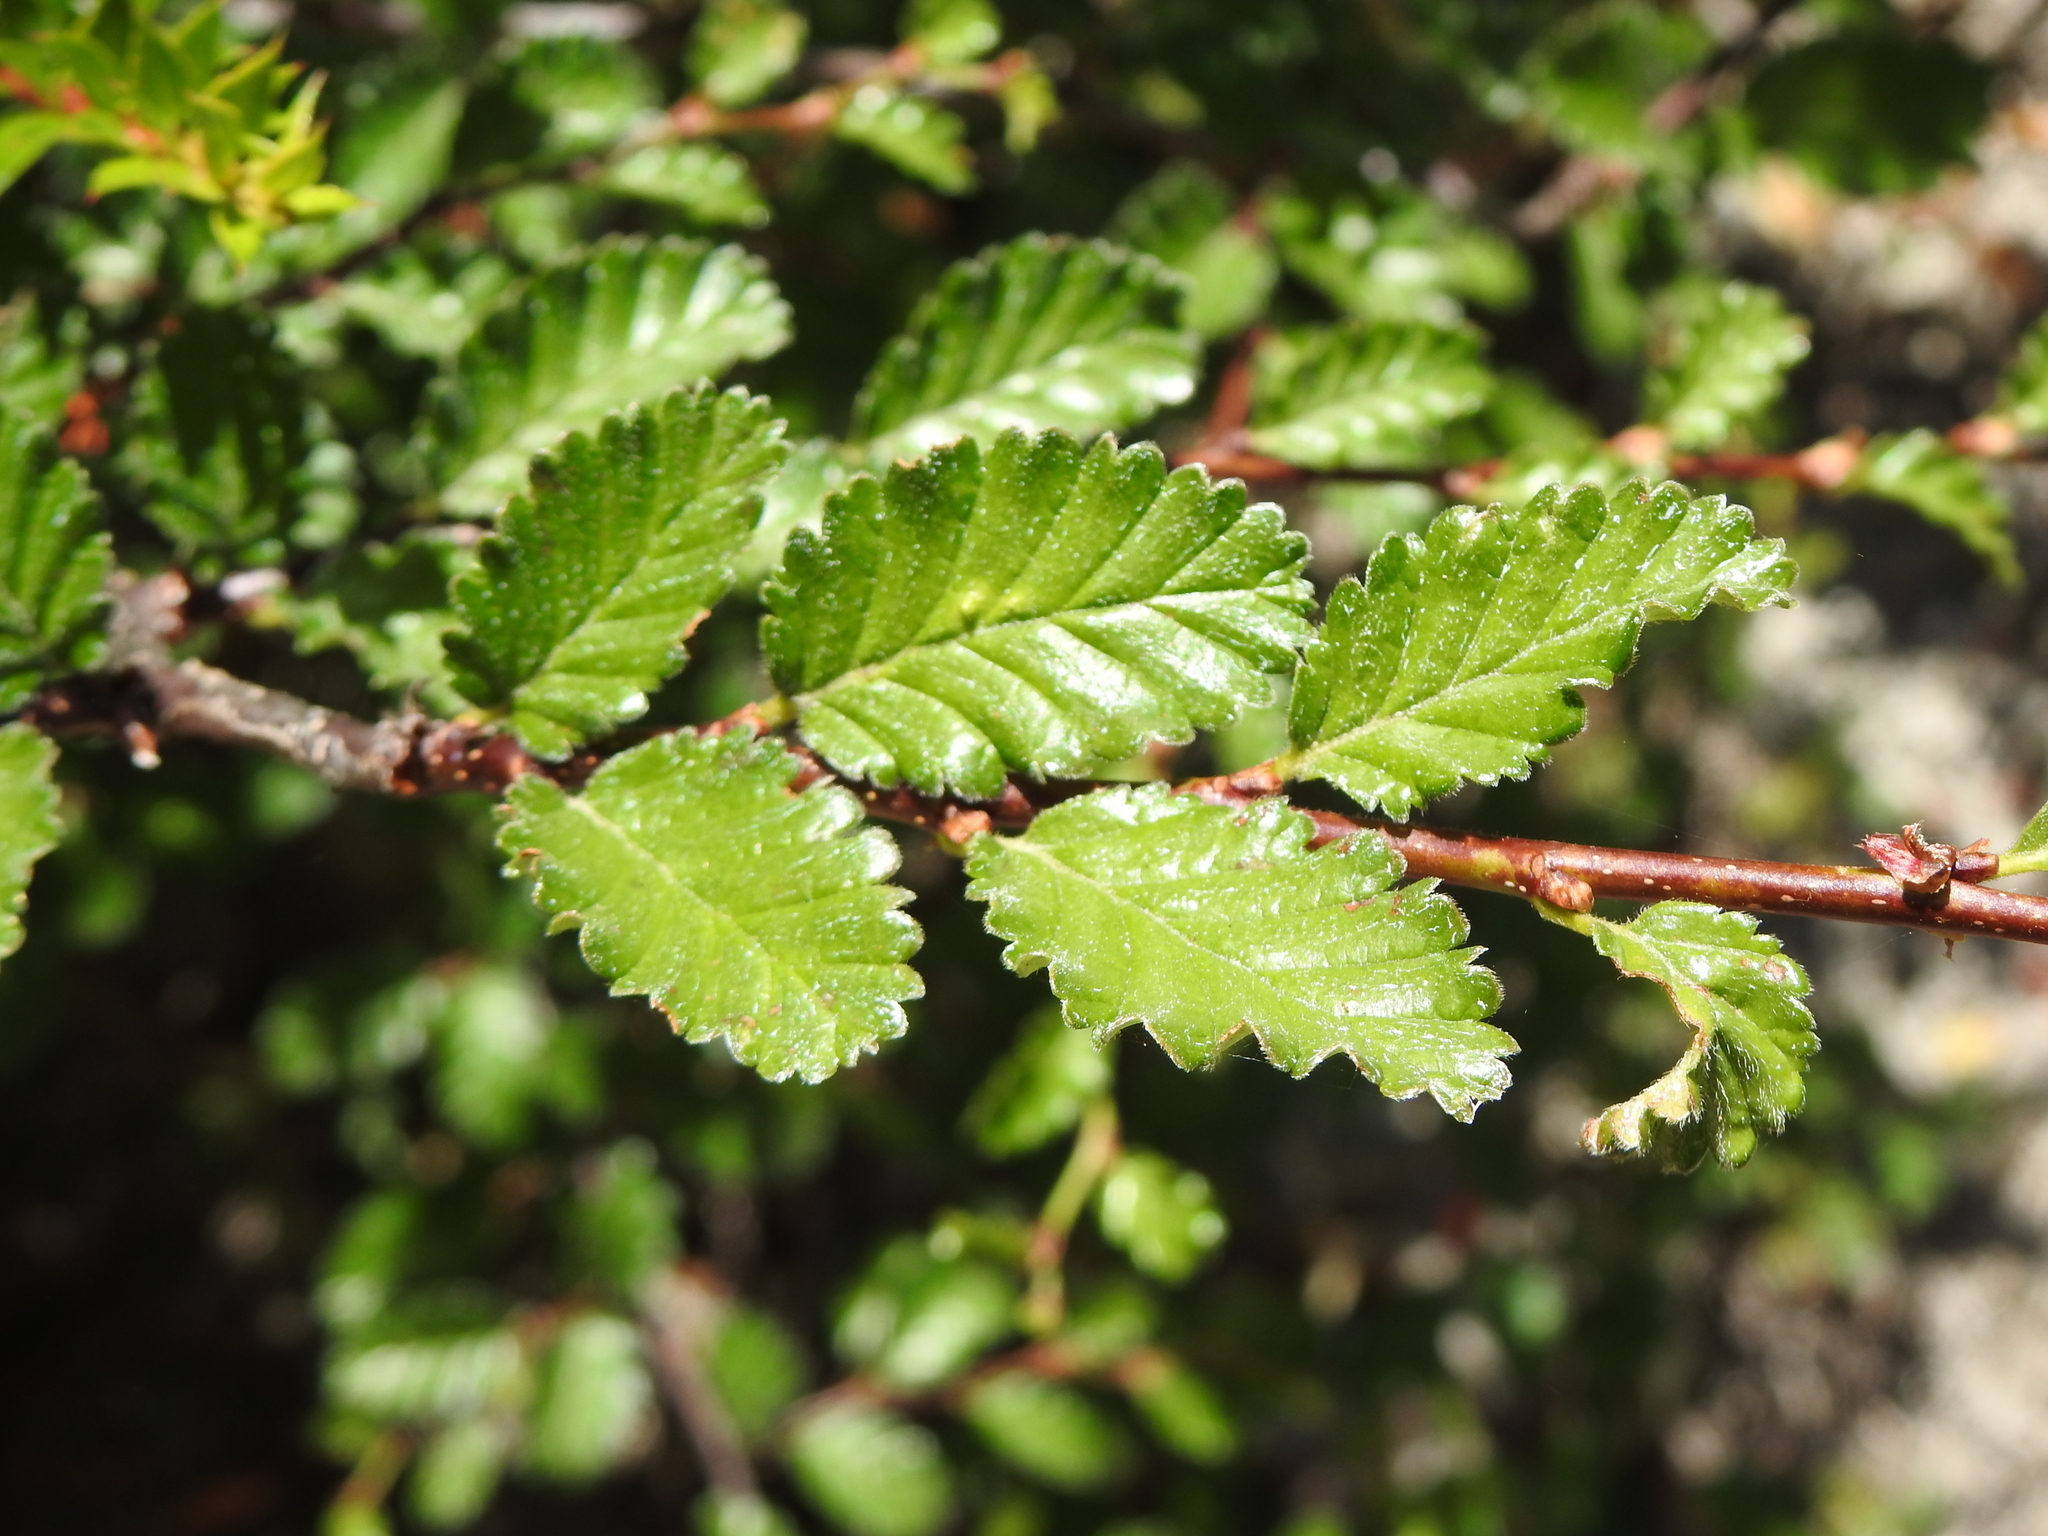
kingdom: Plantae
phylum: Tracheophyta
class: Magnoliopsida
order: Fagales
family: Nothofagaceae
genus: Nothofagus
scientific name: Nothofagus pumilio
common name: Lenga beech
